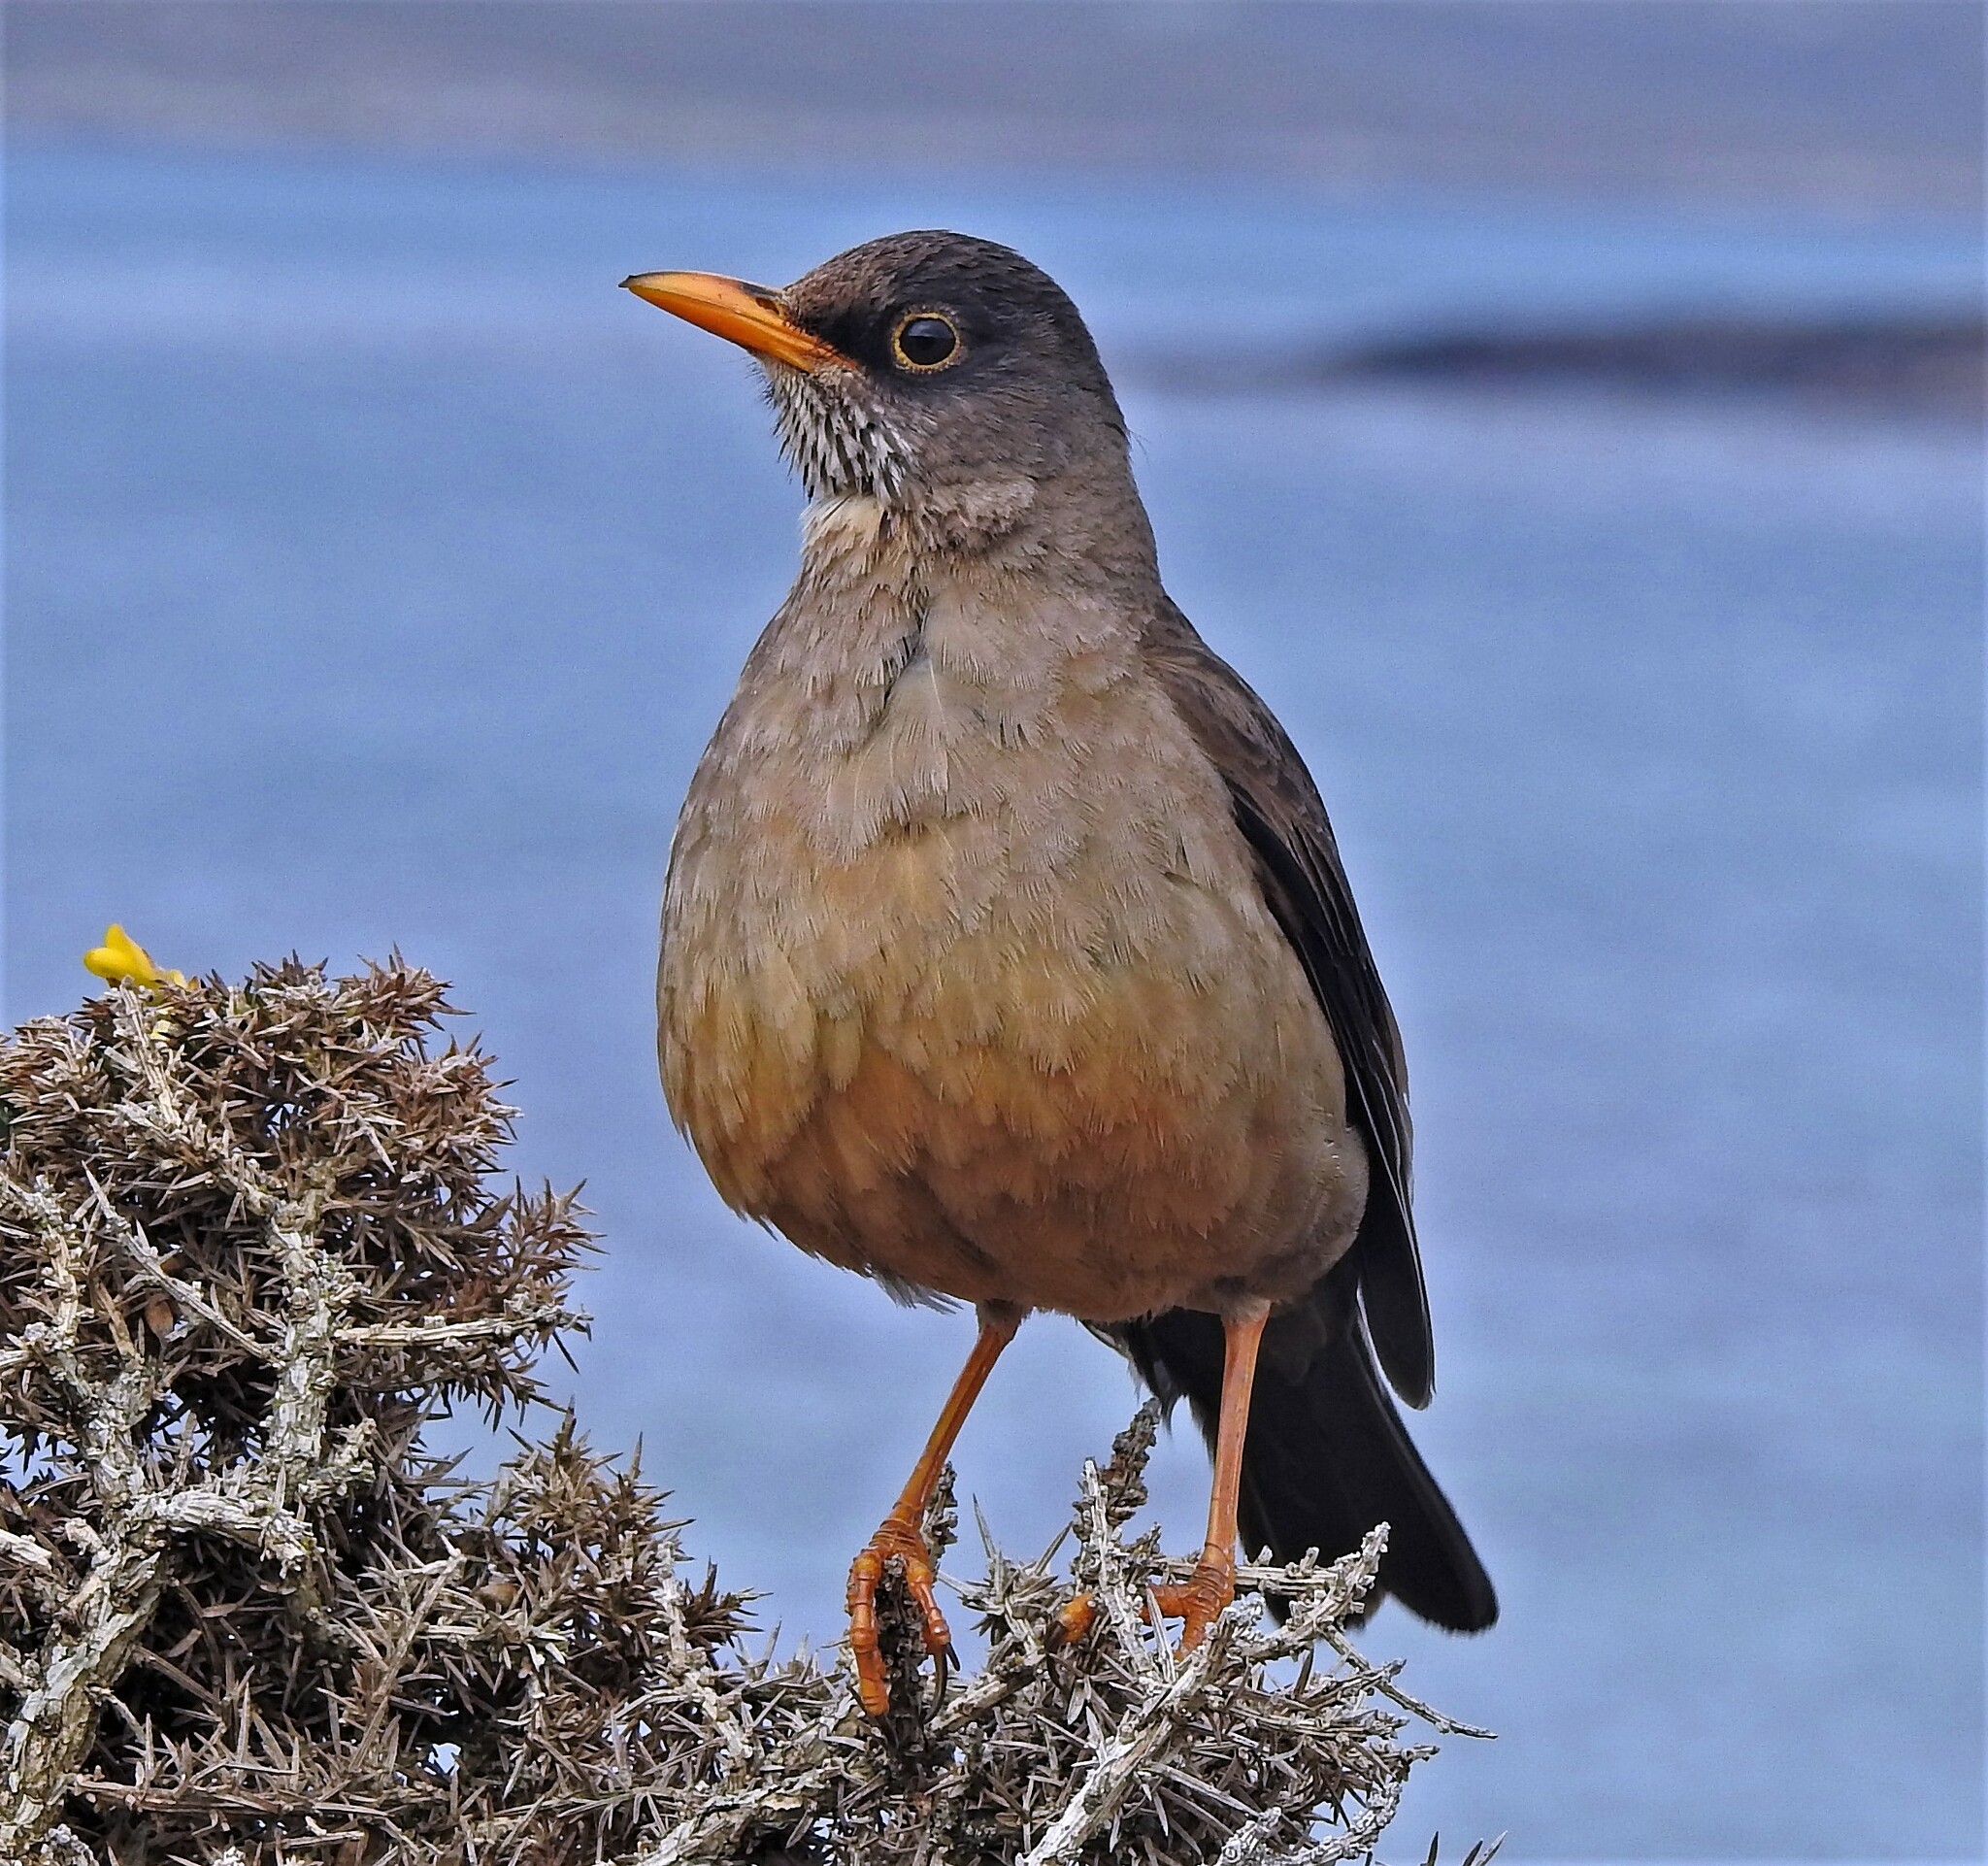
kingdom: Animalia
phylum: Chordata
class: Aves
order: Passeriformes
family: Turdidae
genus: Turdus
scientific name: Turdus falcklandii
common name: Austral thrush
